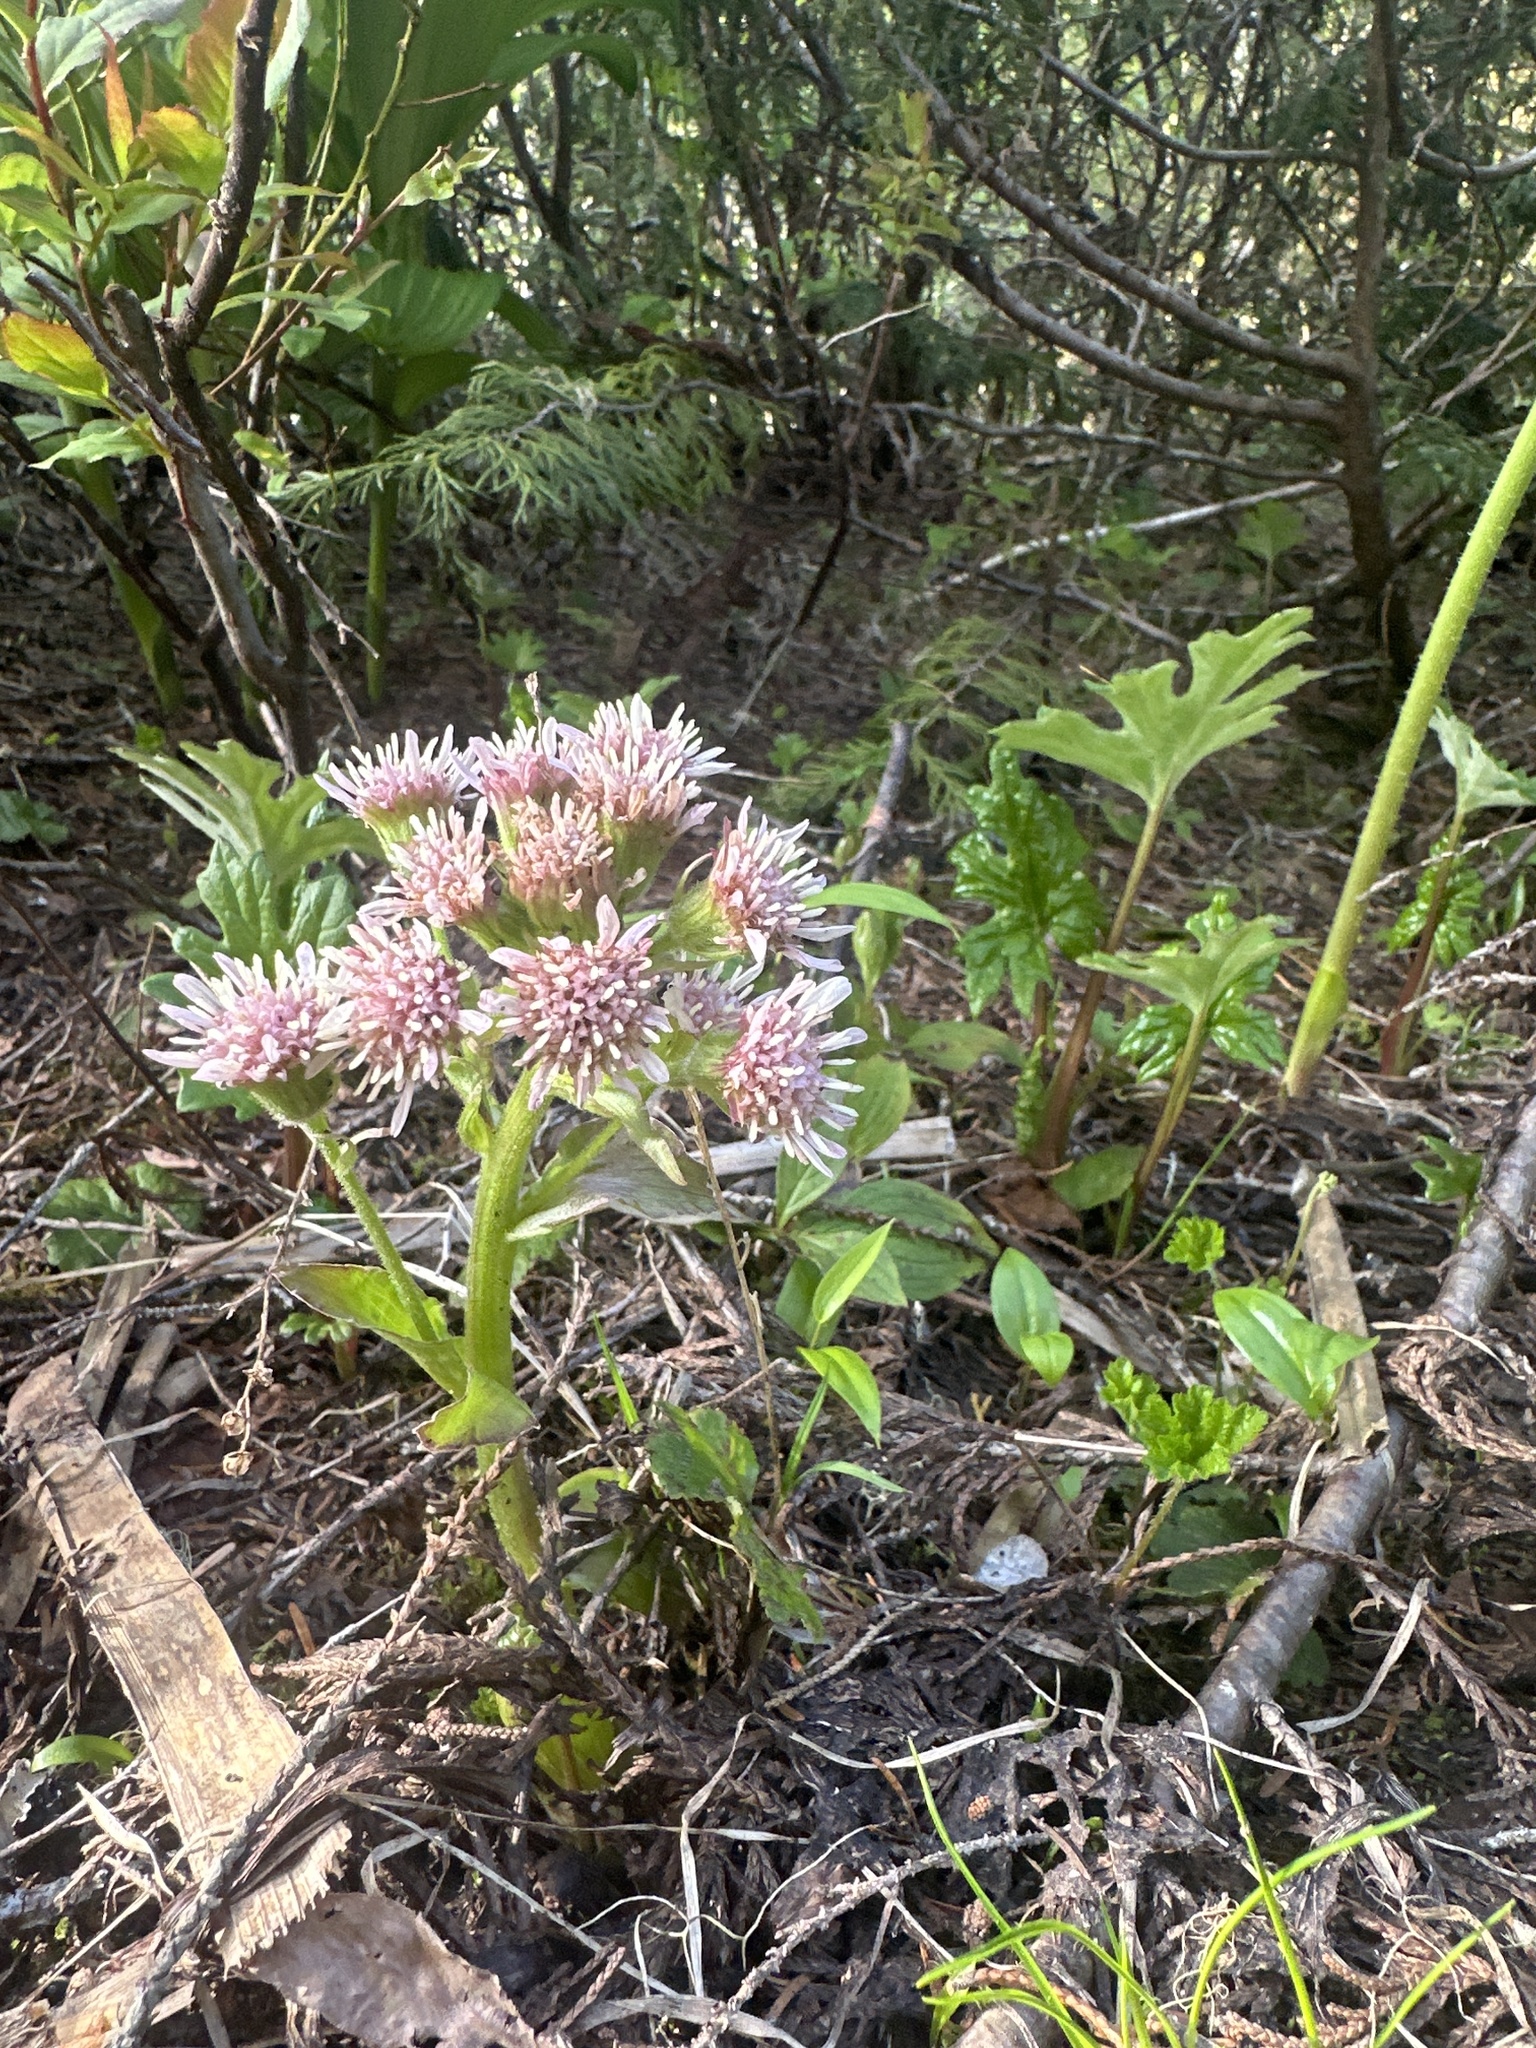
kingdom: Plantae
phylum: Tracheophyta
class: Magnoliopsida
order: Asterales
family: Asteraceae
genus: Petasites
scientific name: Petasites frigidus
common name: Arctic butterbur
